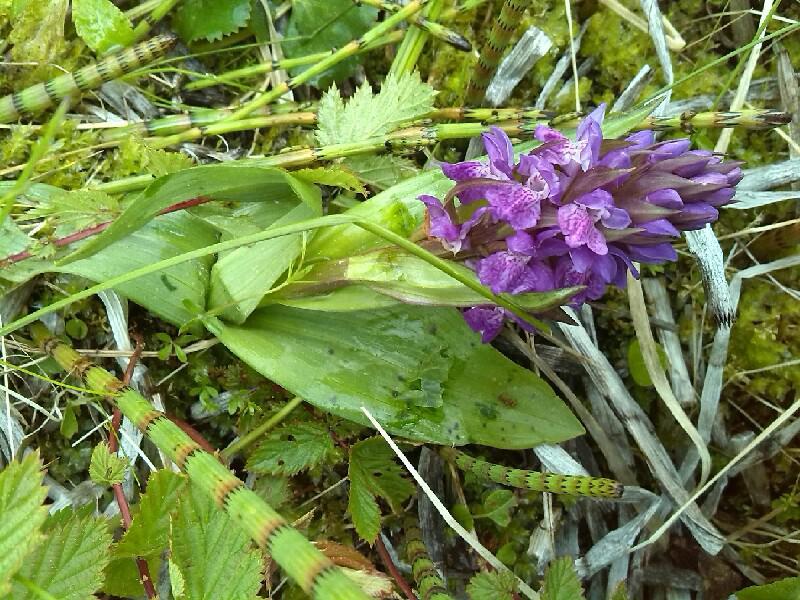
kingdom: Plantae
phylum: Tracheophyta
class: Liliopsida
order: Asparagales
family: Orchidaceae
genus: Dactylorhiza
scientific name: Dactylorhiza majalis
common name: Marsh orchid
